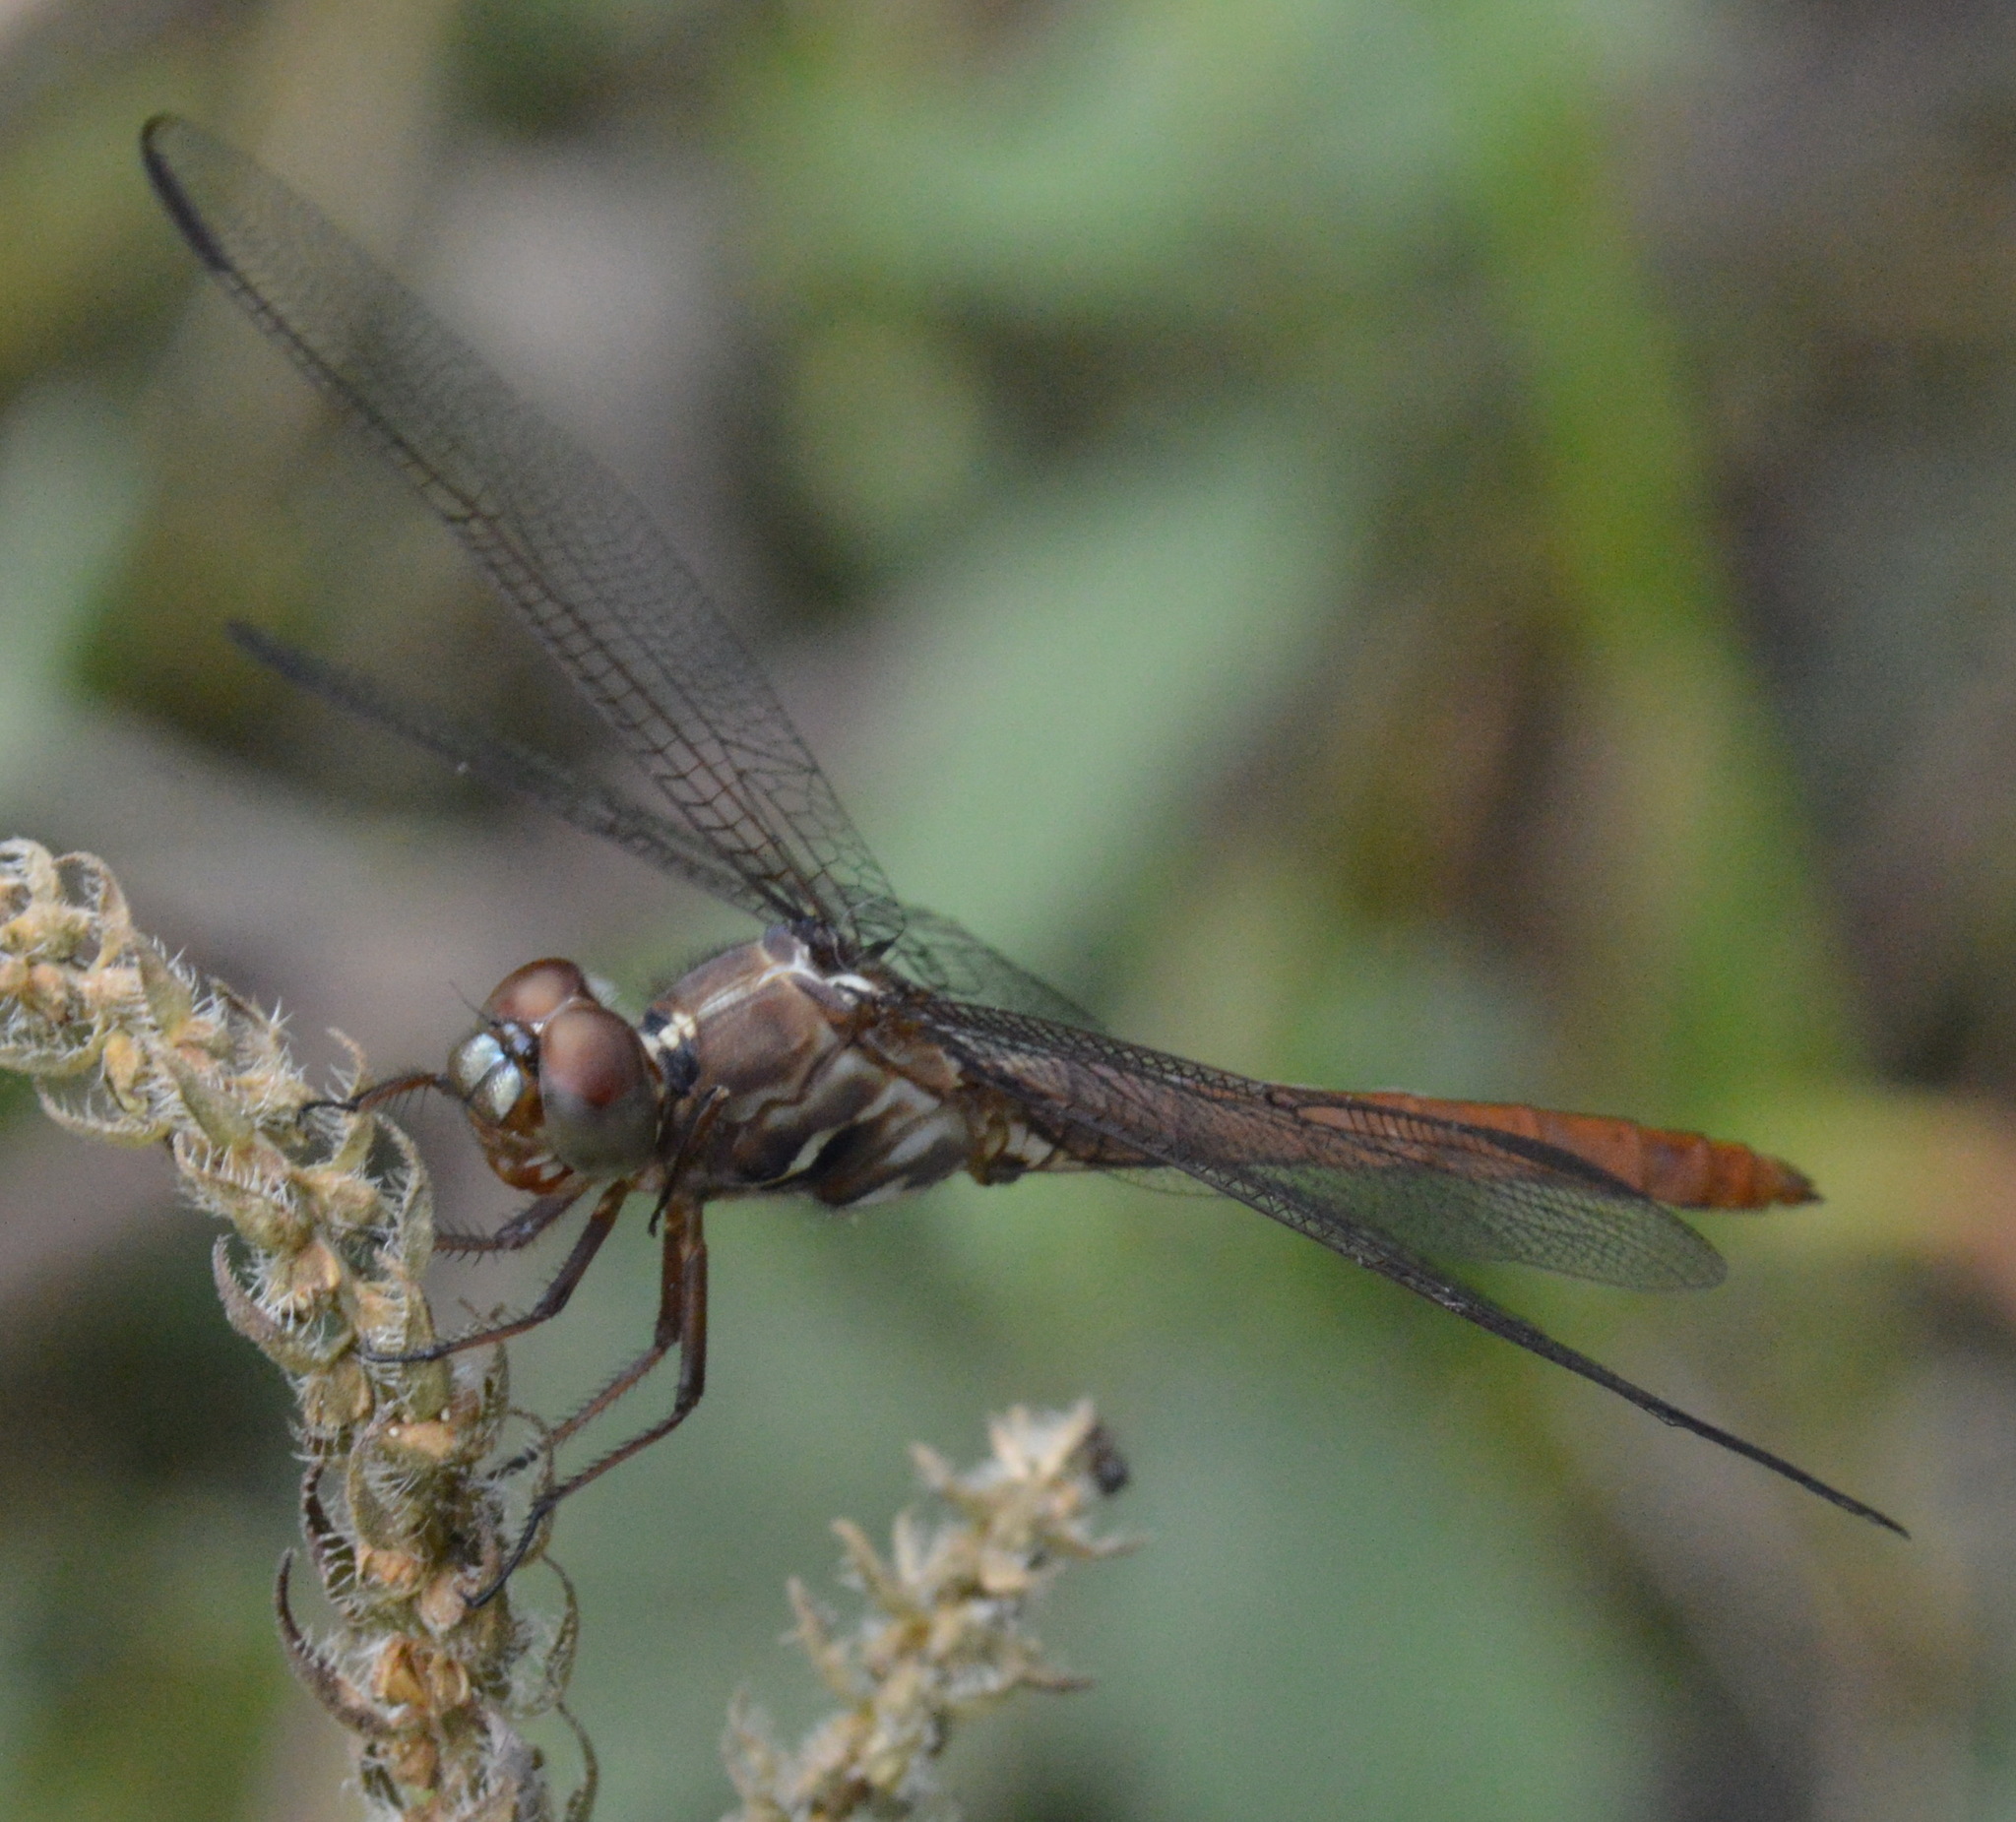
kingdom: Animalia
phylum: Arthropoda
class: Insecta
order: Odonata
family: Libellulidae
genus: Orthemis
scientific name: Orthemis ferruginea
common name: Roseate skimmer
